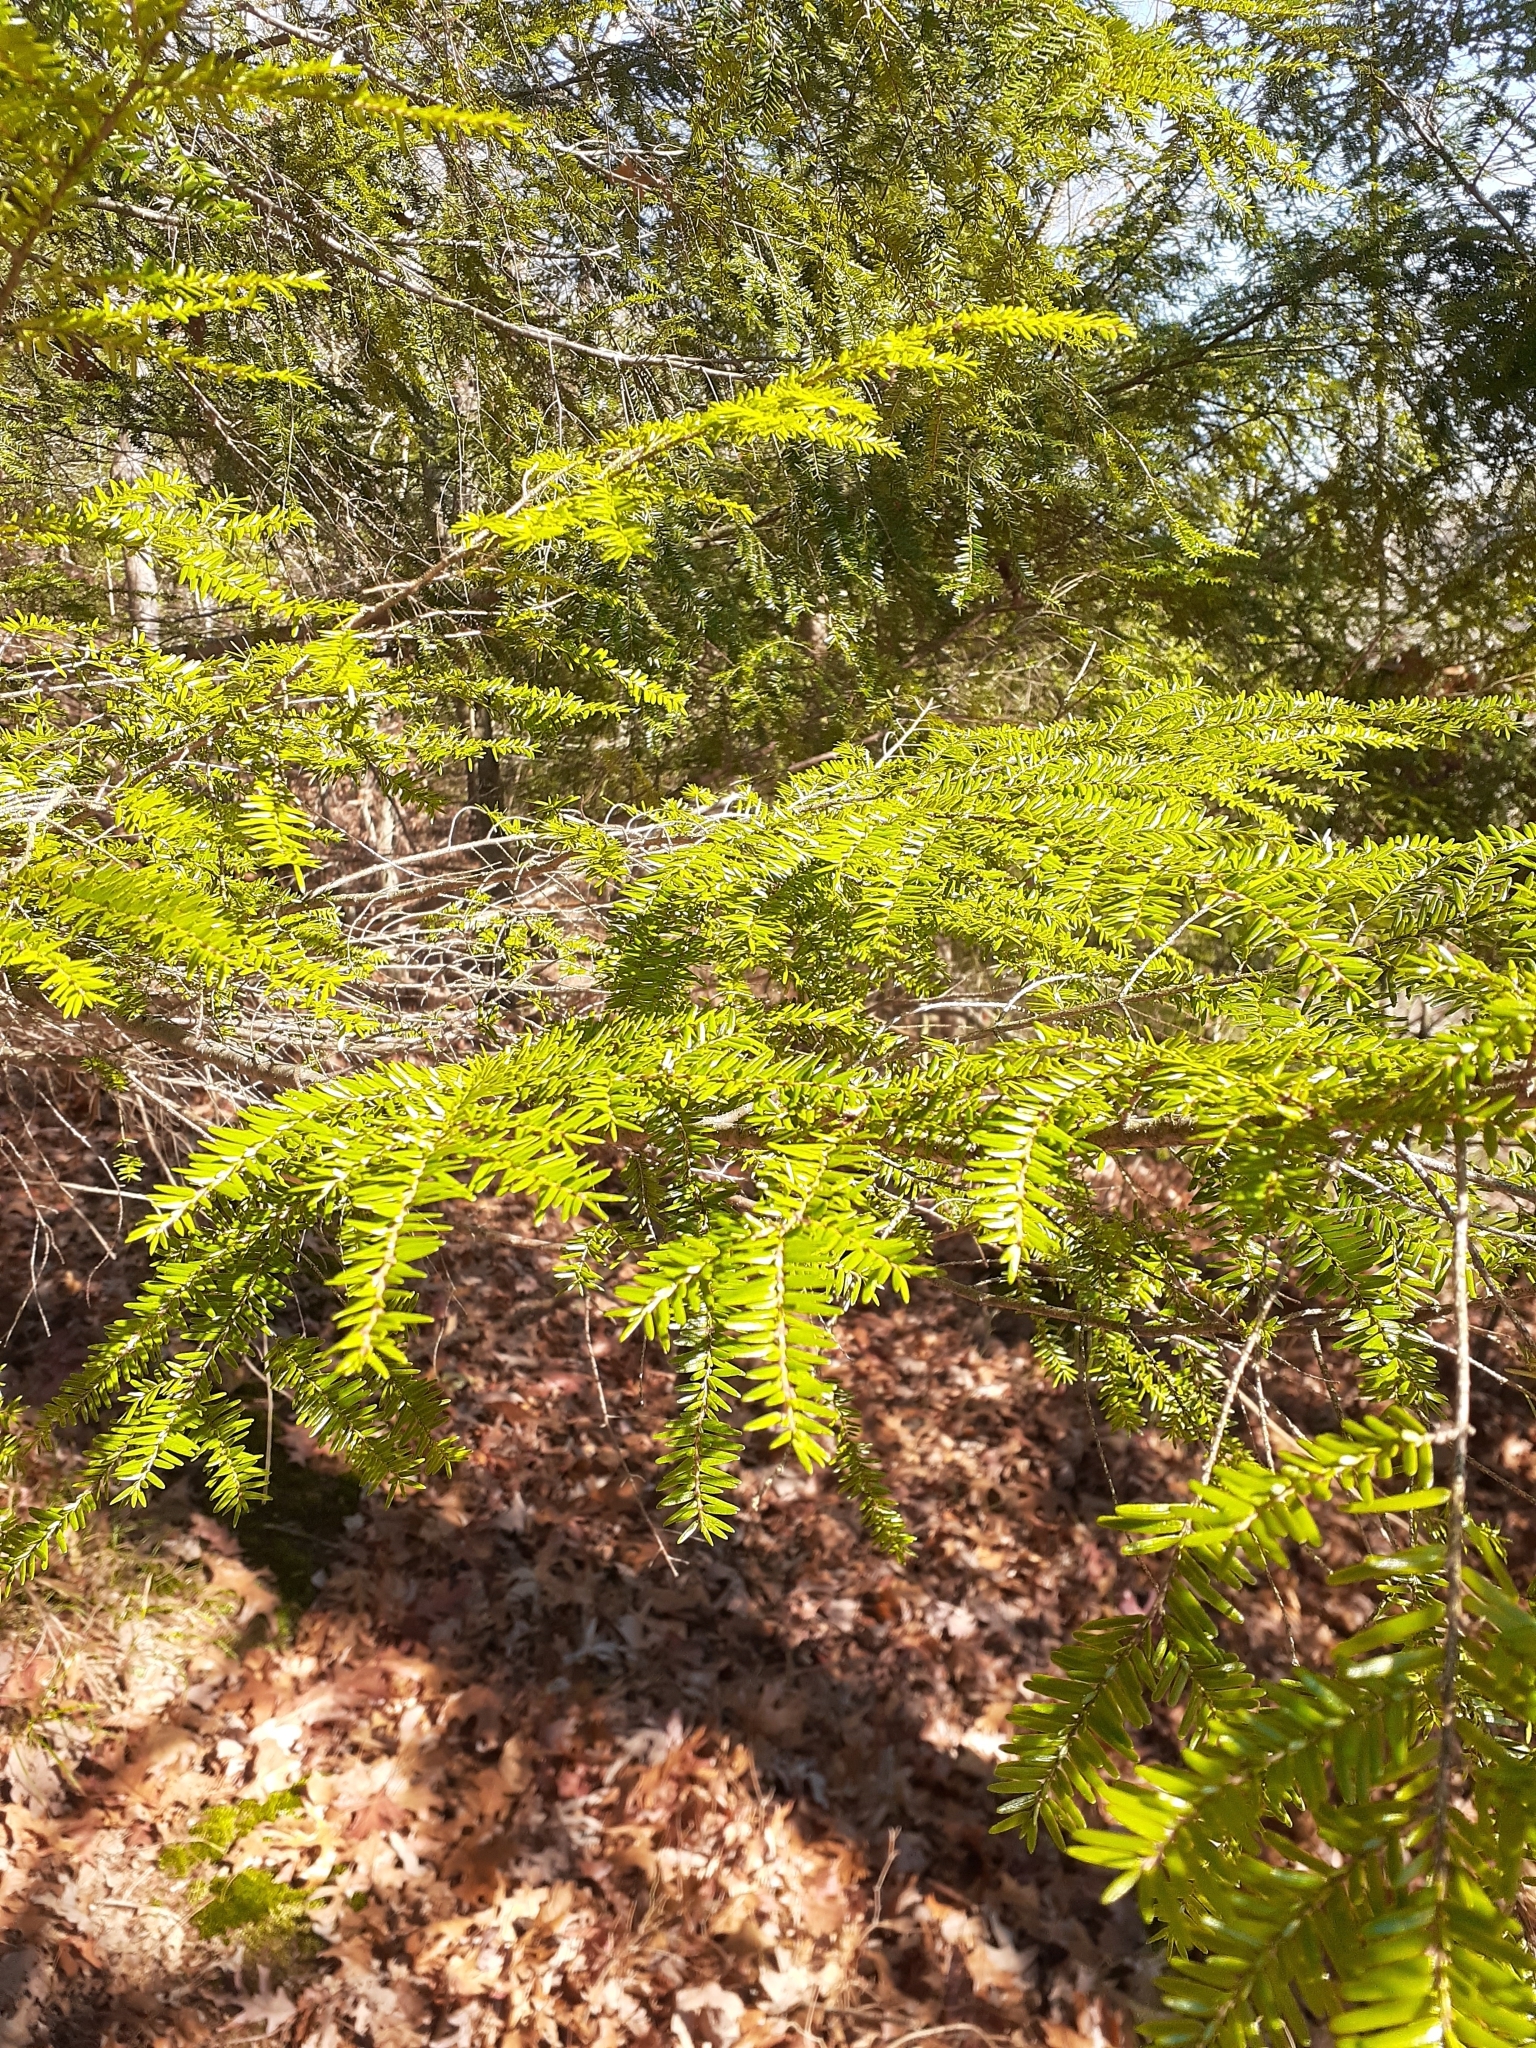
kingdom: Plantae
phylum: Tracheophyta
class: Pinopsida
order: Pinales
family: Pinaceae
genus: Tsuga
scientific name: Tsuga canadensis
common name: Eastern hemlock
